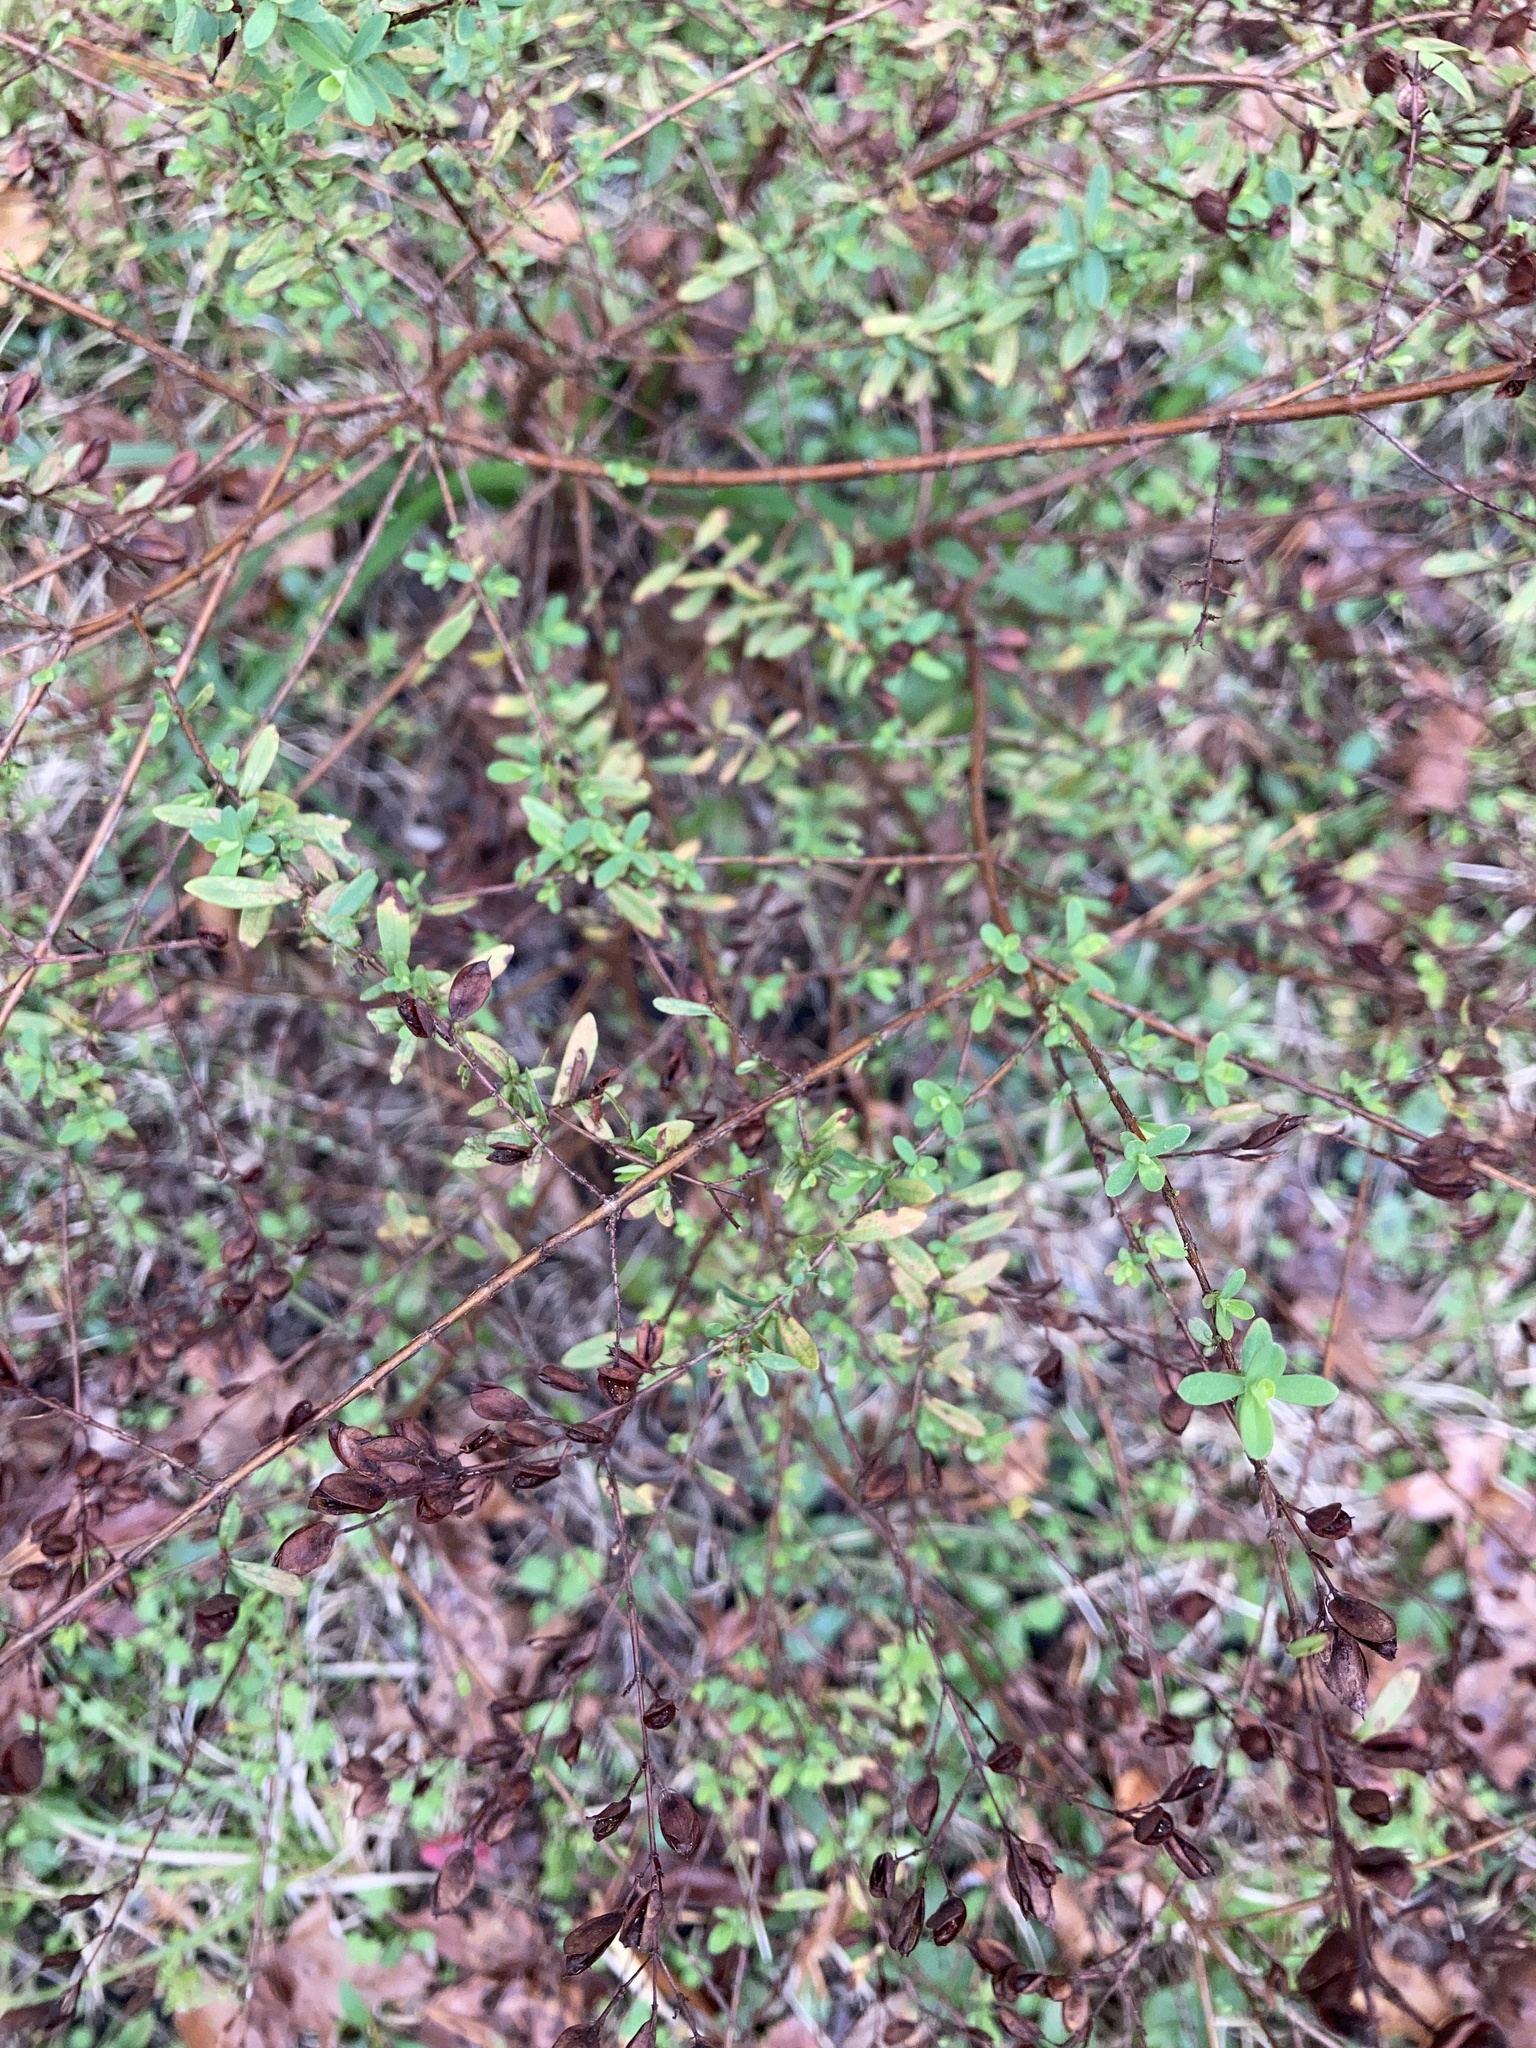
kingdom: Plantae
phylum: Tracheophyta
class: Magnoliopsida
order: Malpighiales
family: Hypericaceae
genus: Hypericum
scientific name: Hypericum hypericoides
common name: St. andrew's cross
